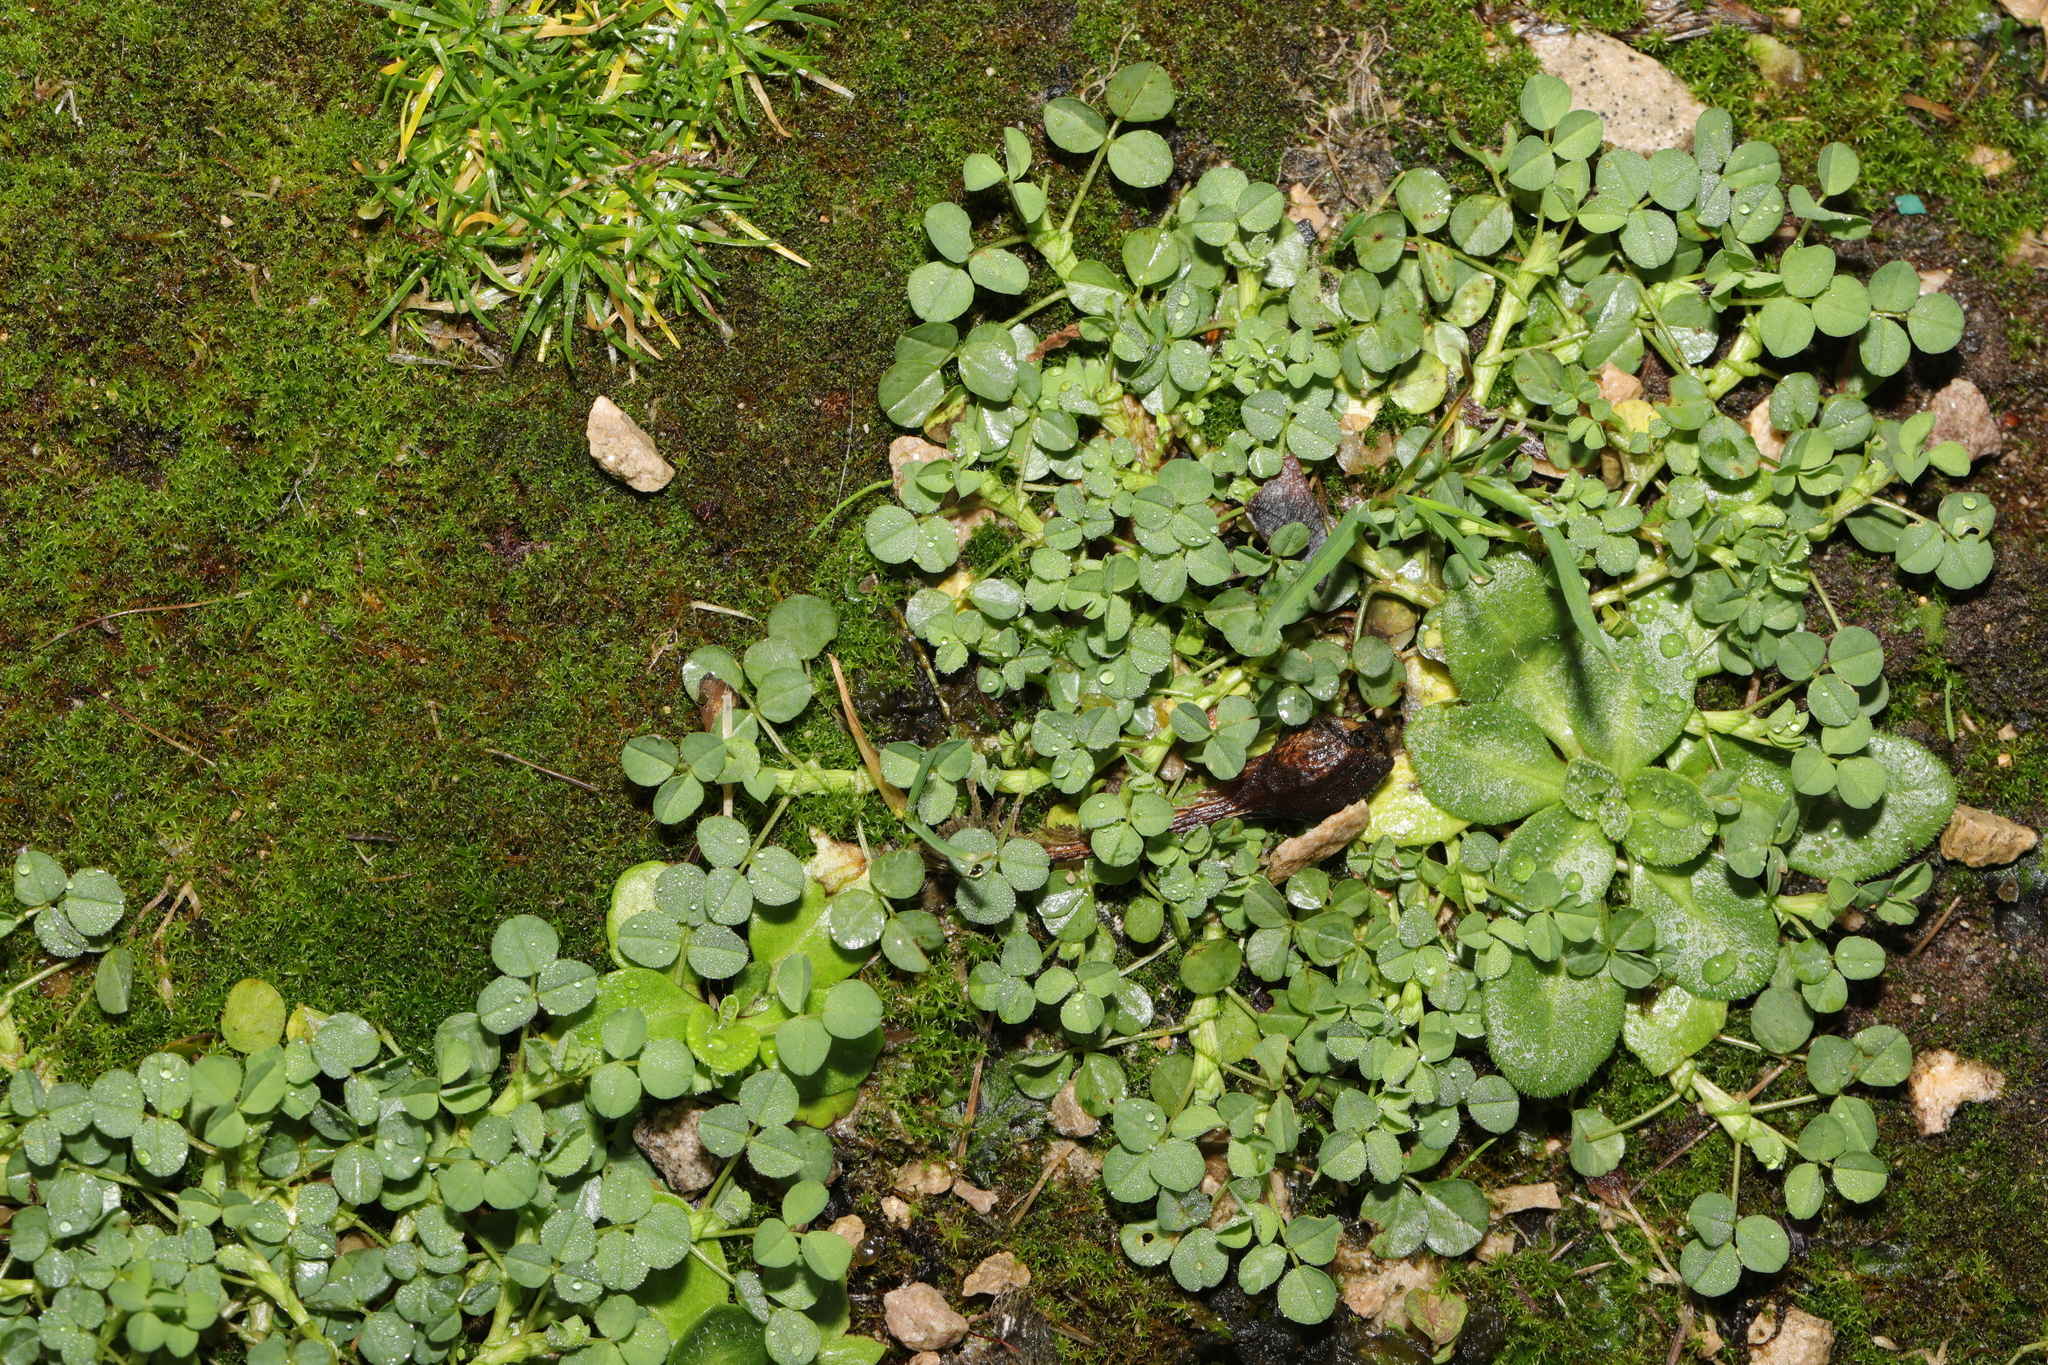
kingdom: Plantae
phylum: Tracheophyta
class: Magnoliopsida
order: Fabales
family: Fabaceae
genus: Medicago
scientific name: Medicago lupulina
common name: Black medick
